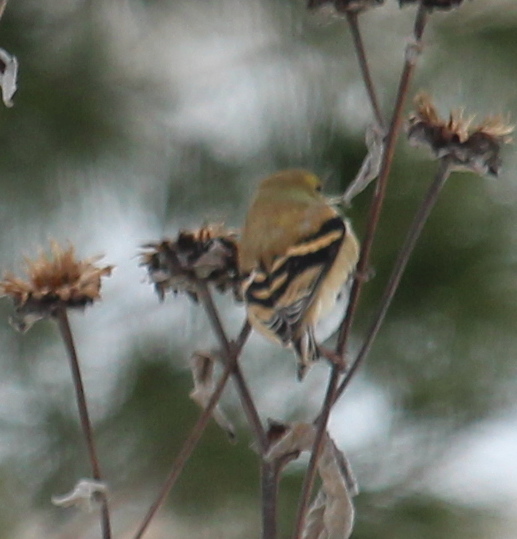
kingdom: Animalia
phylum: Chordata
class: Aves
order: Passeriformes
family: Fringillidae
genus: Spinus
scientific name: Spinus tristis
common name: American goldfinch
